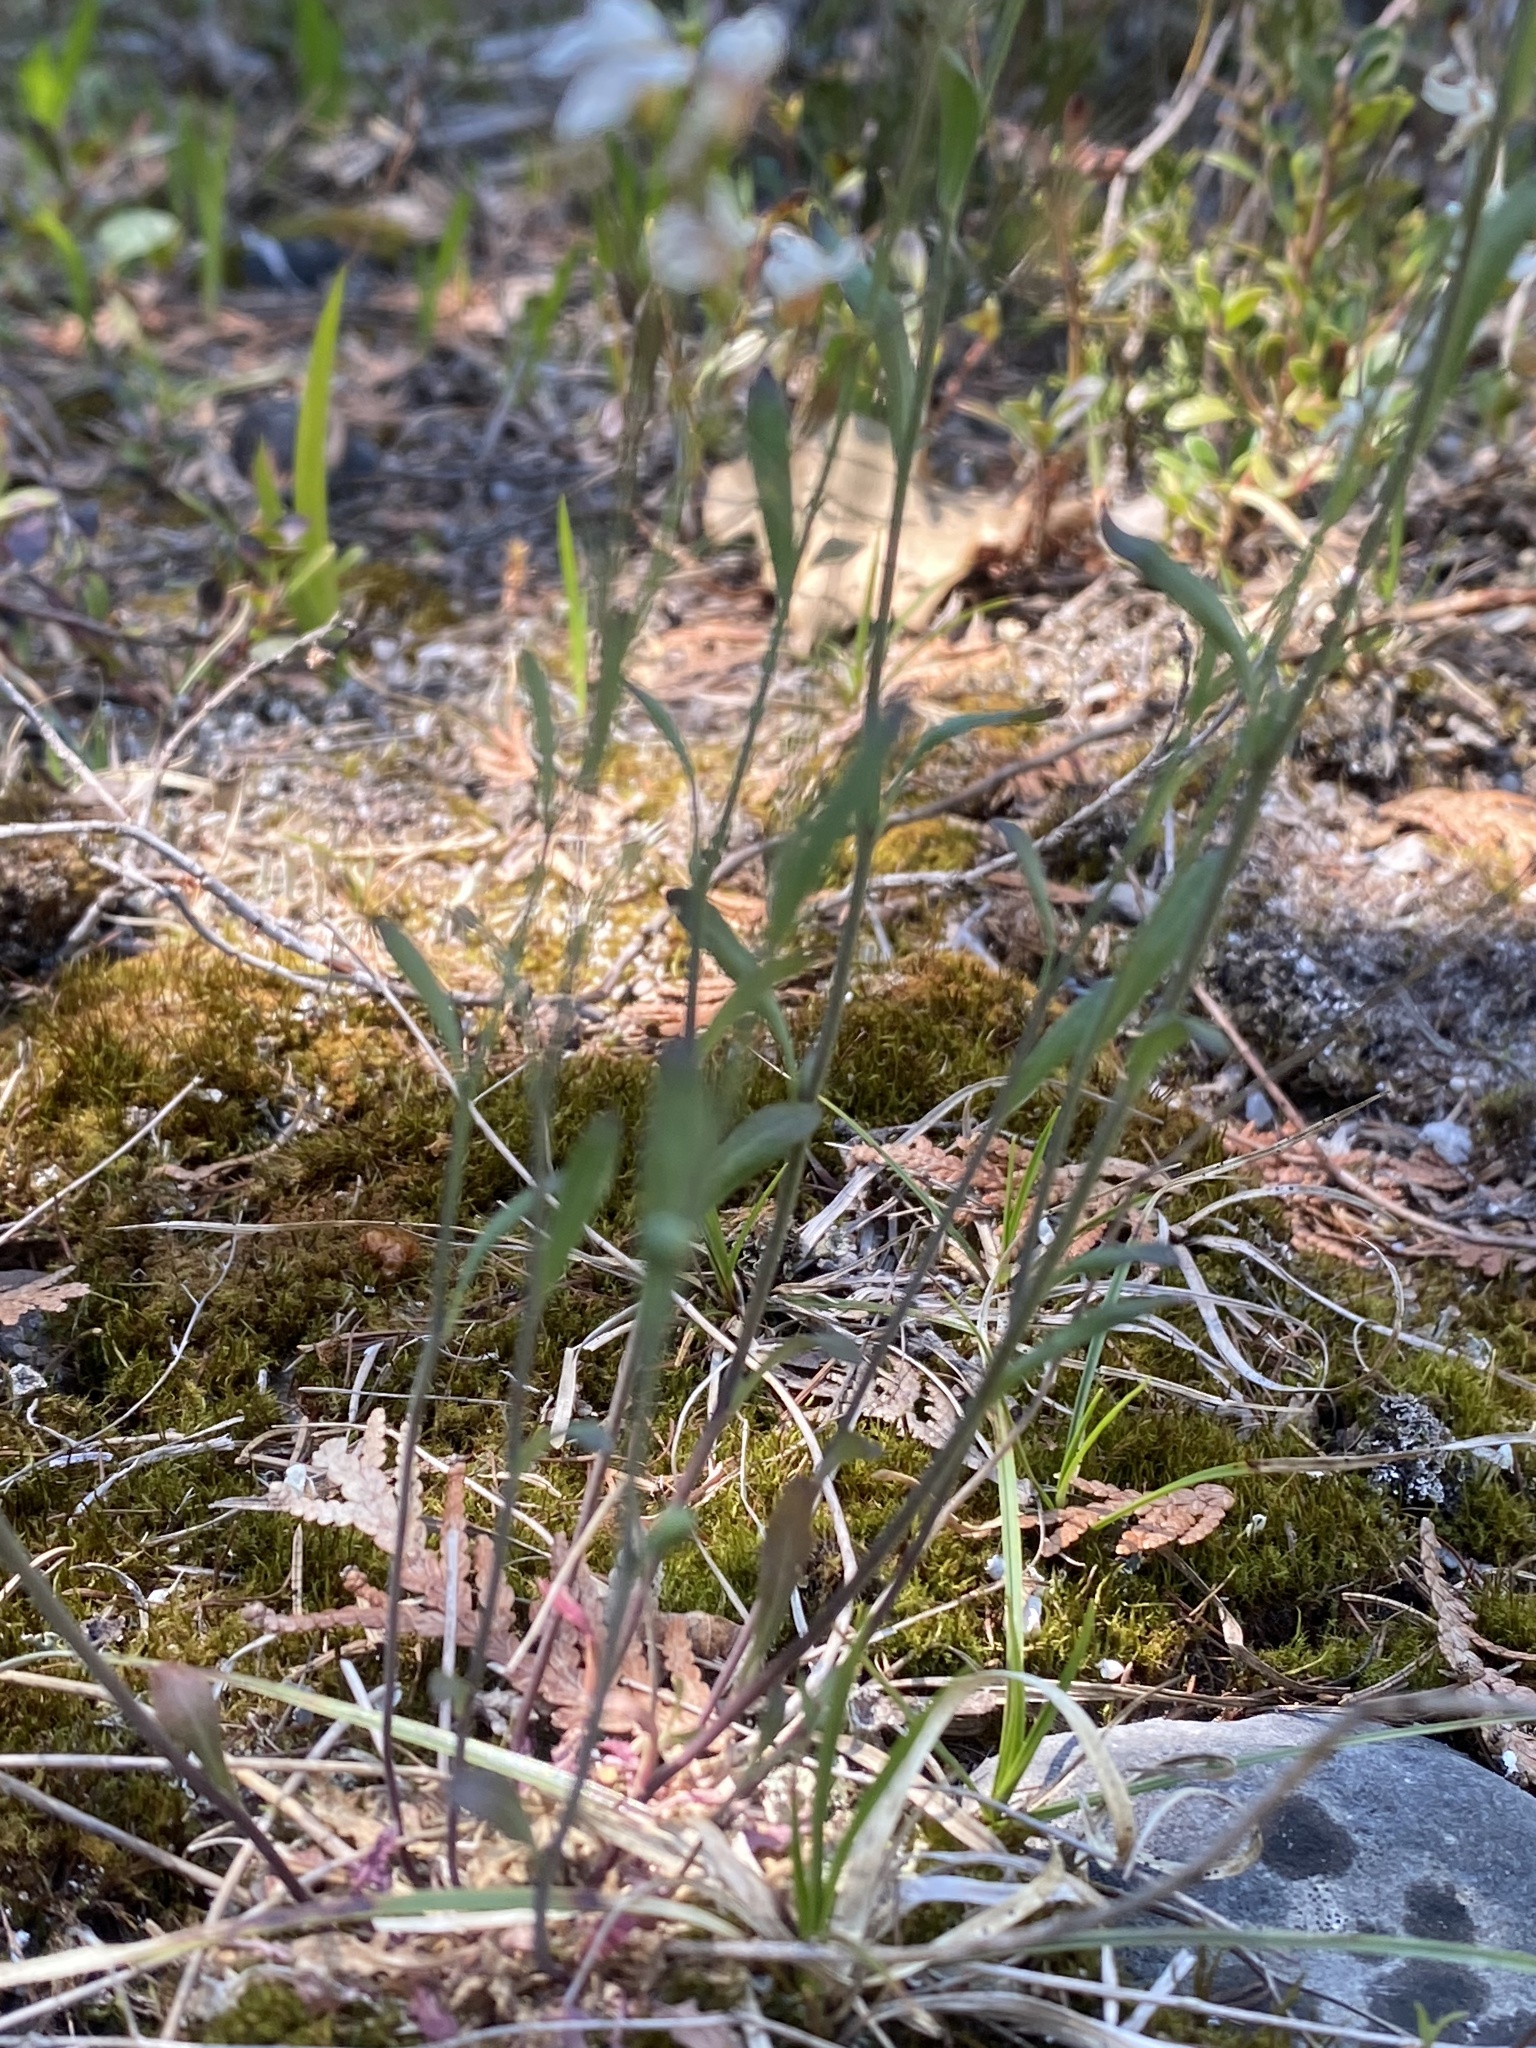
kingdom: Plantae
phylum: Tracheophyta
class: Magnoliopsida
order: Brassicales
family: Brassicaceae
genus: Arabidopsis
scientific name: Arabidopsis lyrata
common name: Lyrate rockcress
